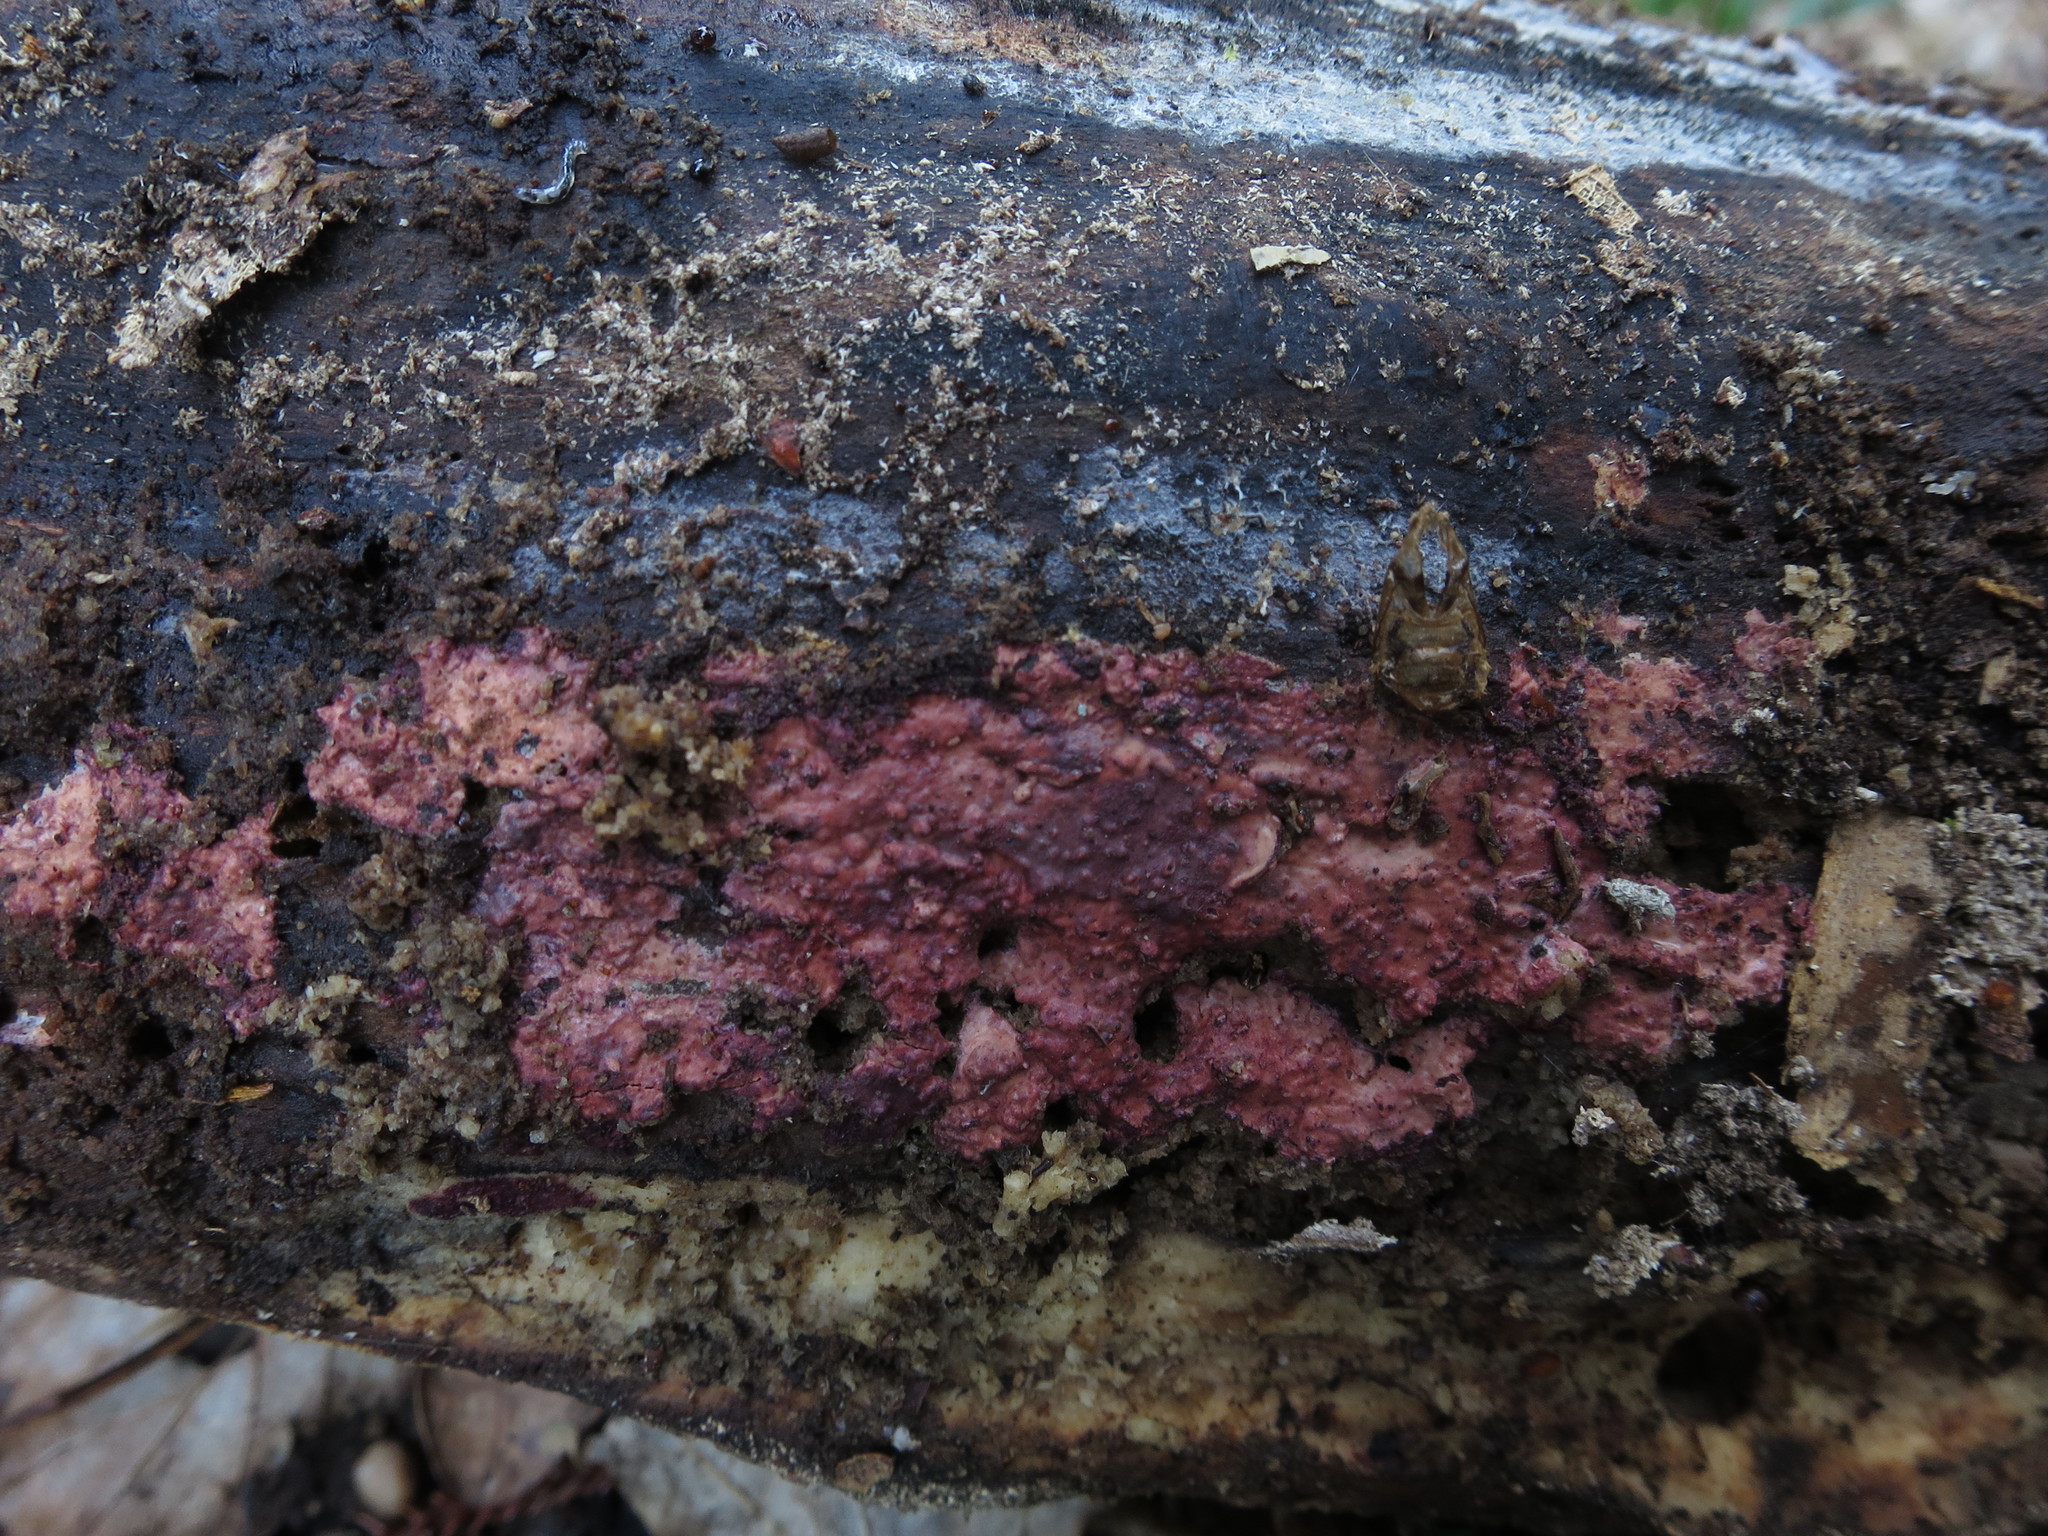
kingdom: Fungi
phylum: Basidiomycota
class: Agaricomycetes
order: Polyporales
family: Irpicaceae
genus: Byssomerulius
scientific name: Byssomerulius psittacinus
